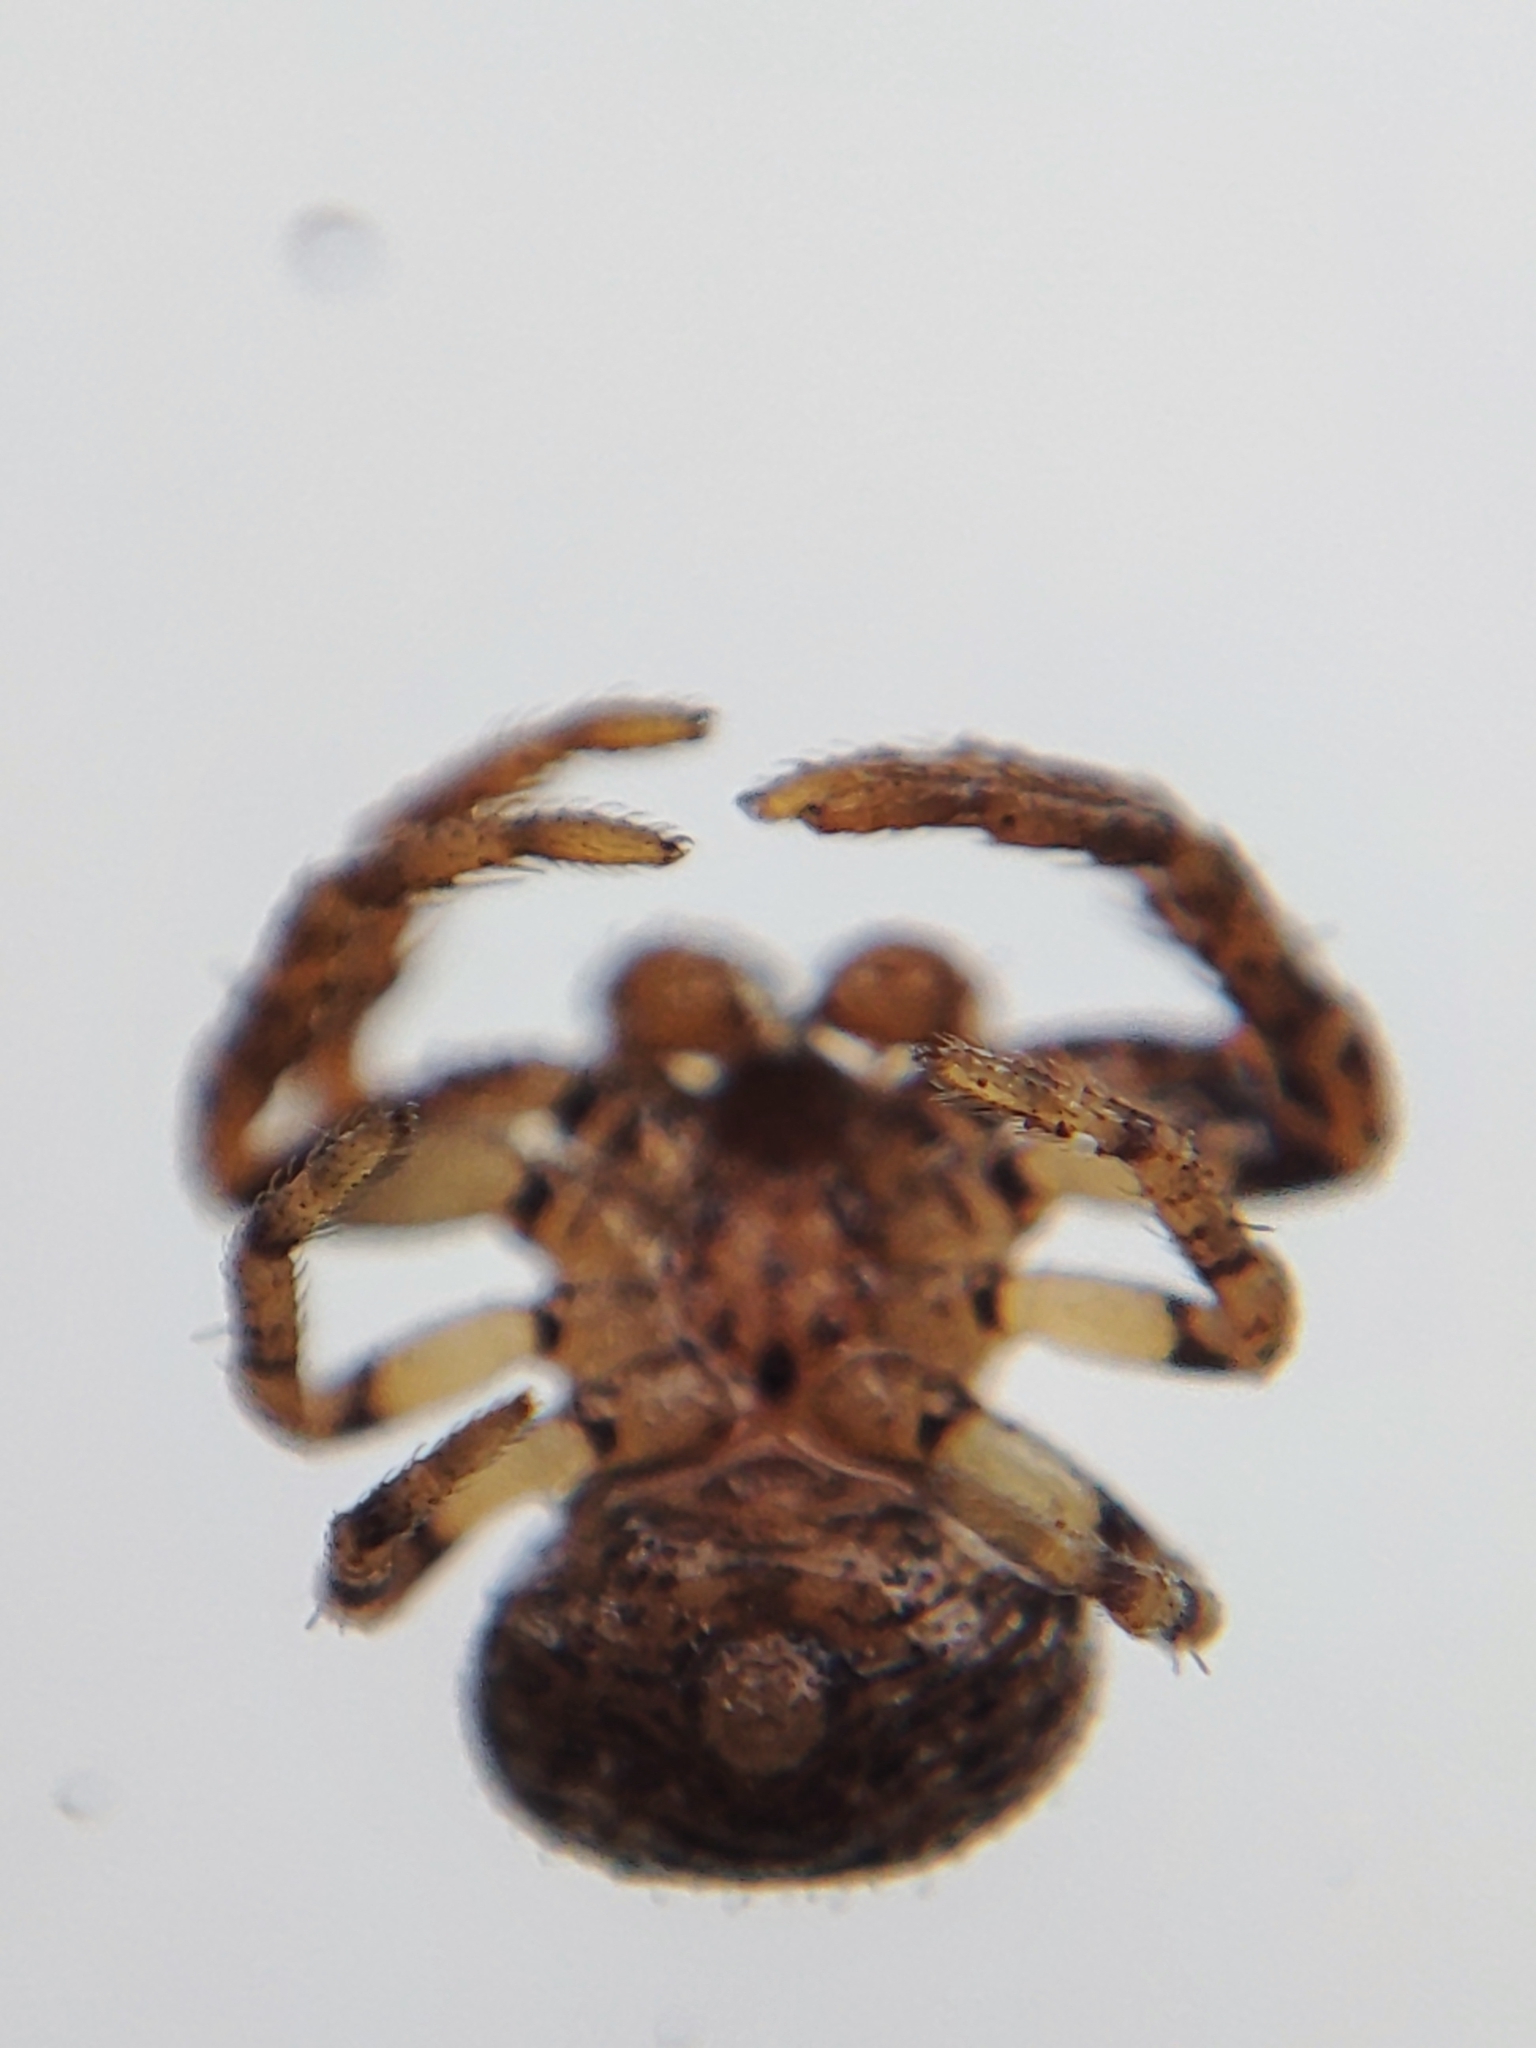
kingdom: Animalia
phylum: Arthropoda
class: Arachnida
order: Araneae
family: Thomisidae
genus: Ozyptila
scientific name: Ozyptila praticola
